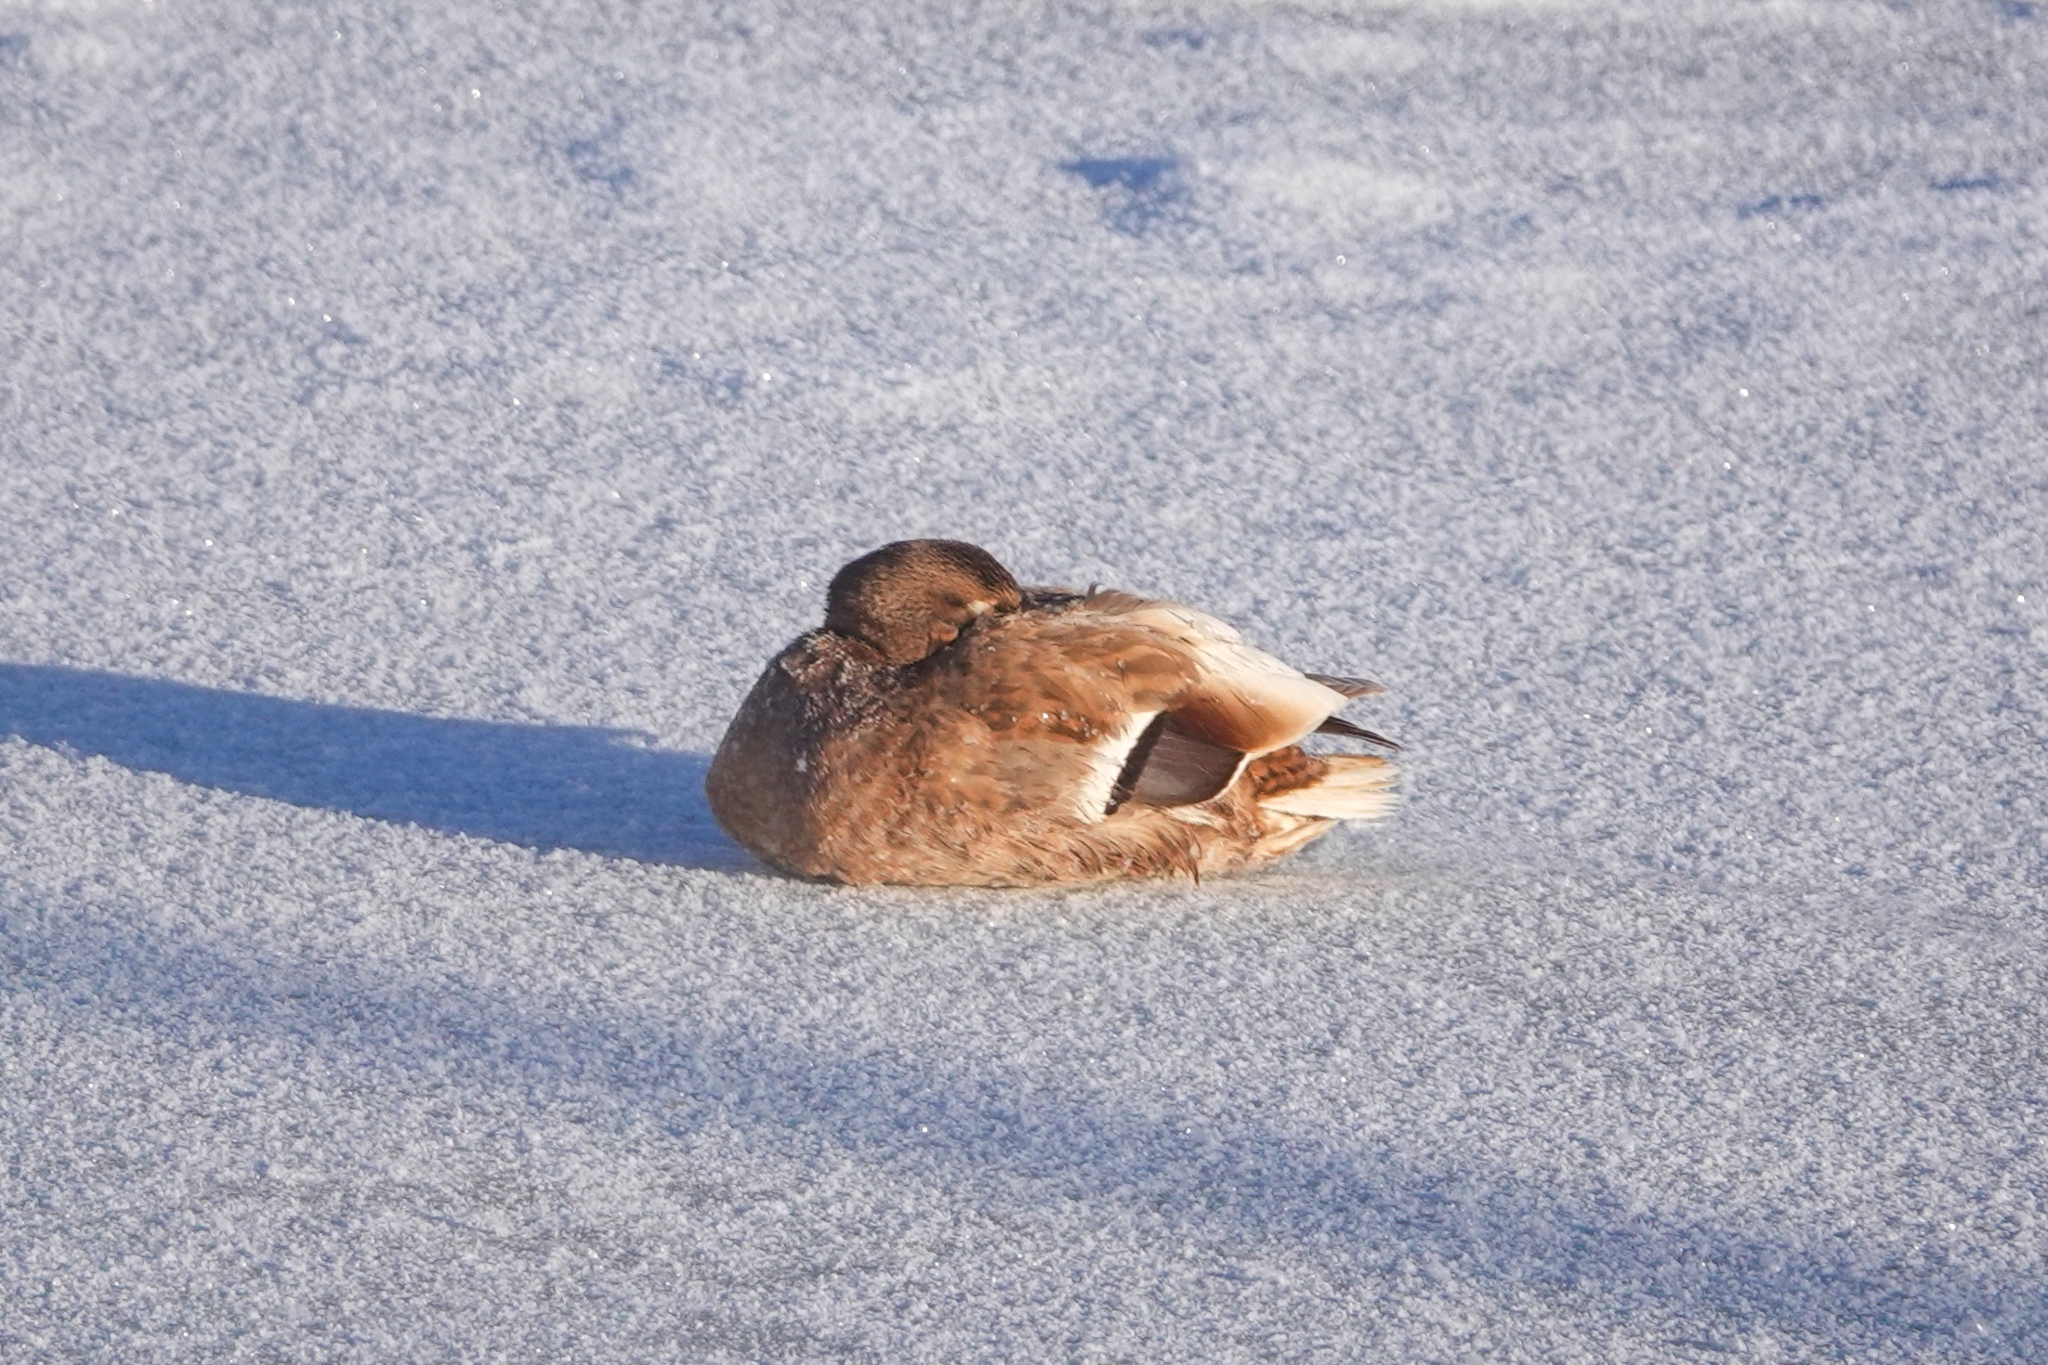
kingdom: Animalia
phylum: Chordata
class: Aves
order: Anseriformes
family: Anatidae
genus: Anas
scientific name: Anas platyrhynchos
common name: Mallard
